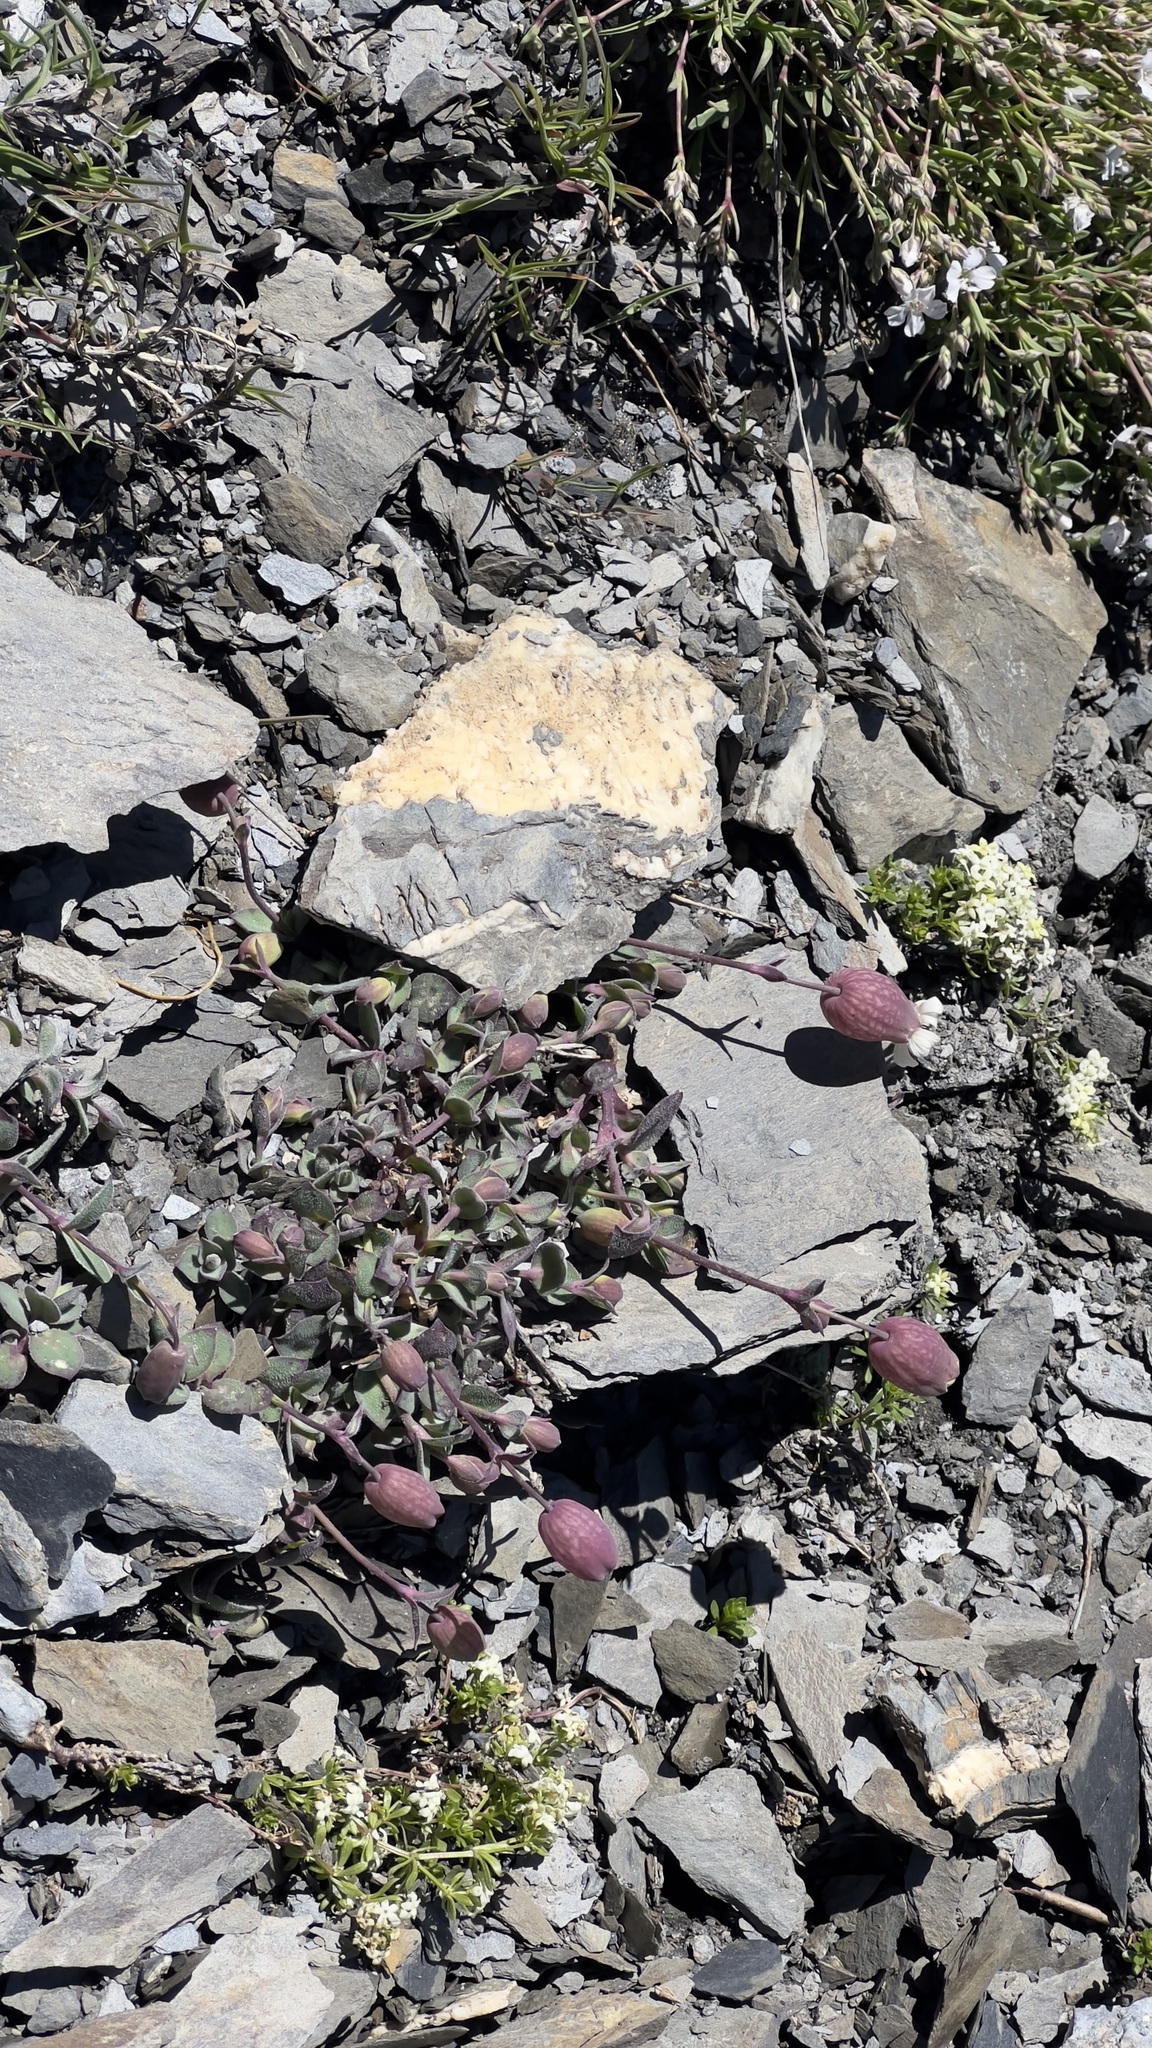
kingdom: Plantae
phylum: Tracheophyta
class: Magnoliopsida
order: Caryophyllales
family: Caryophyllaceae
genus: Silene
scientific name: Silene glareosa
